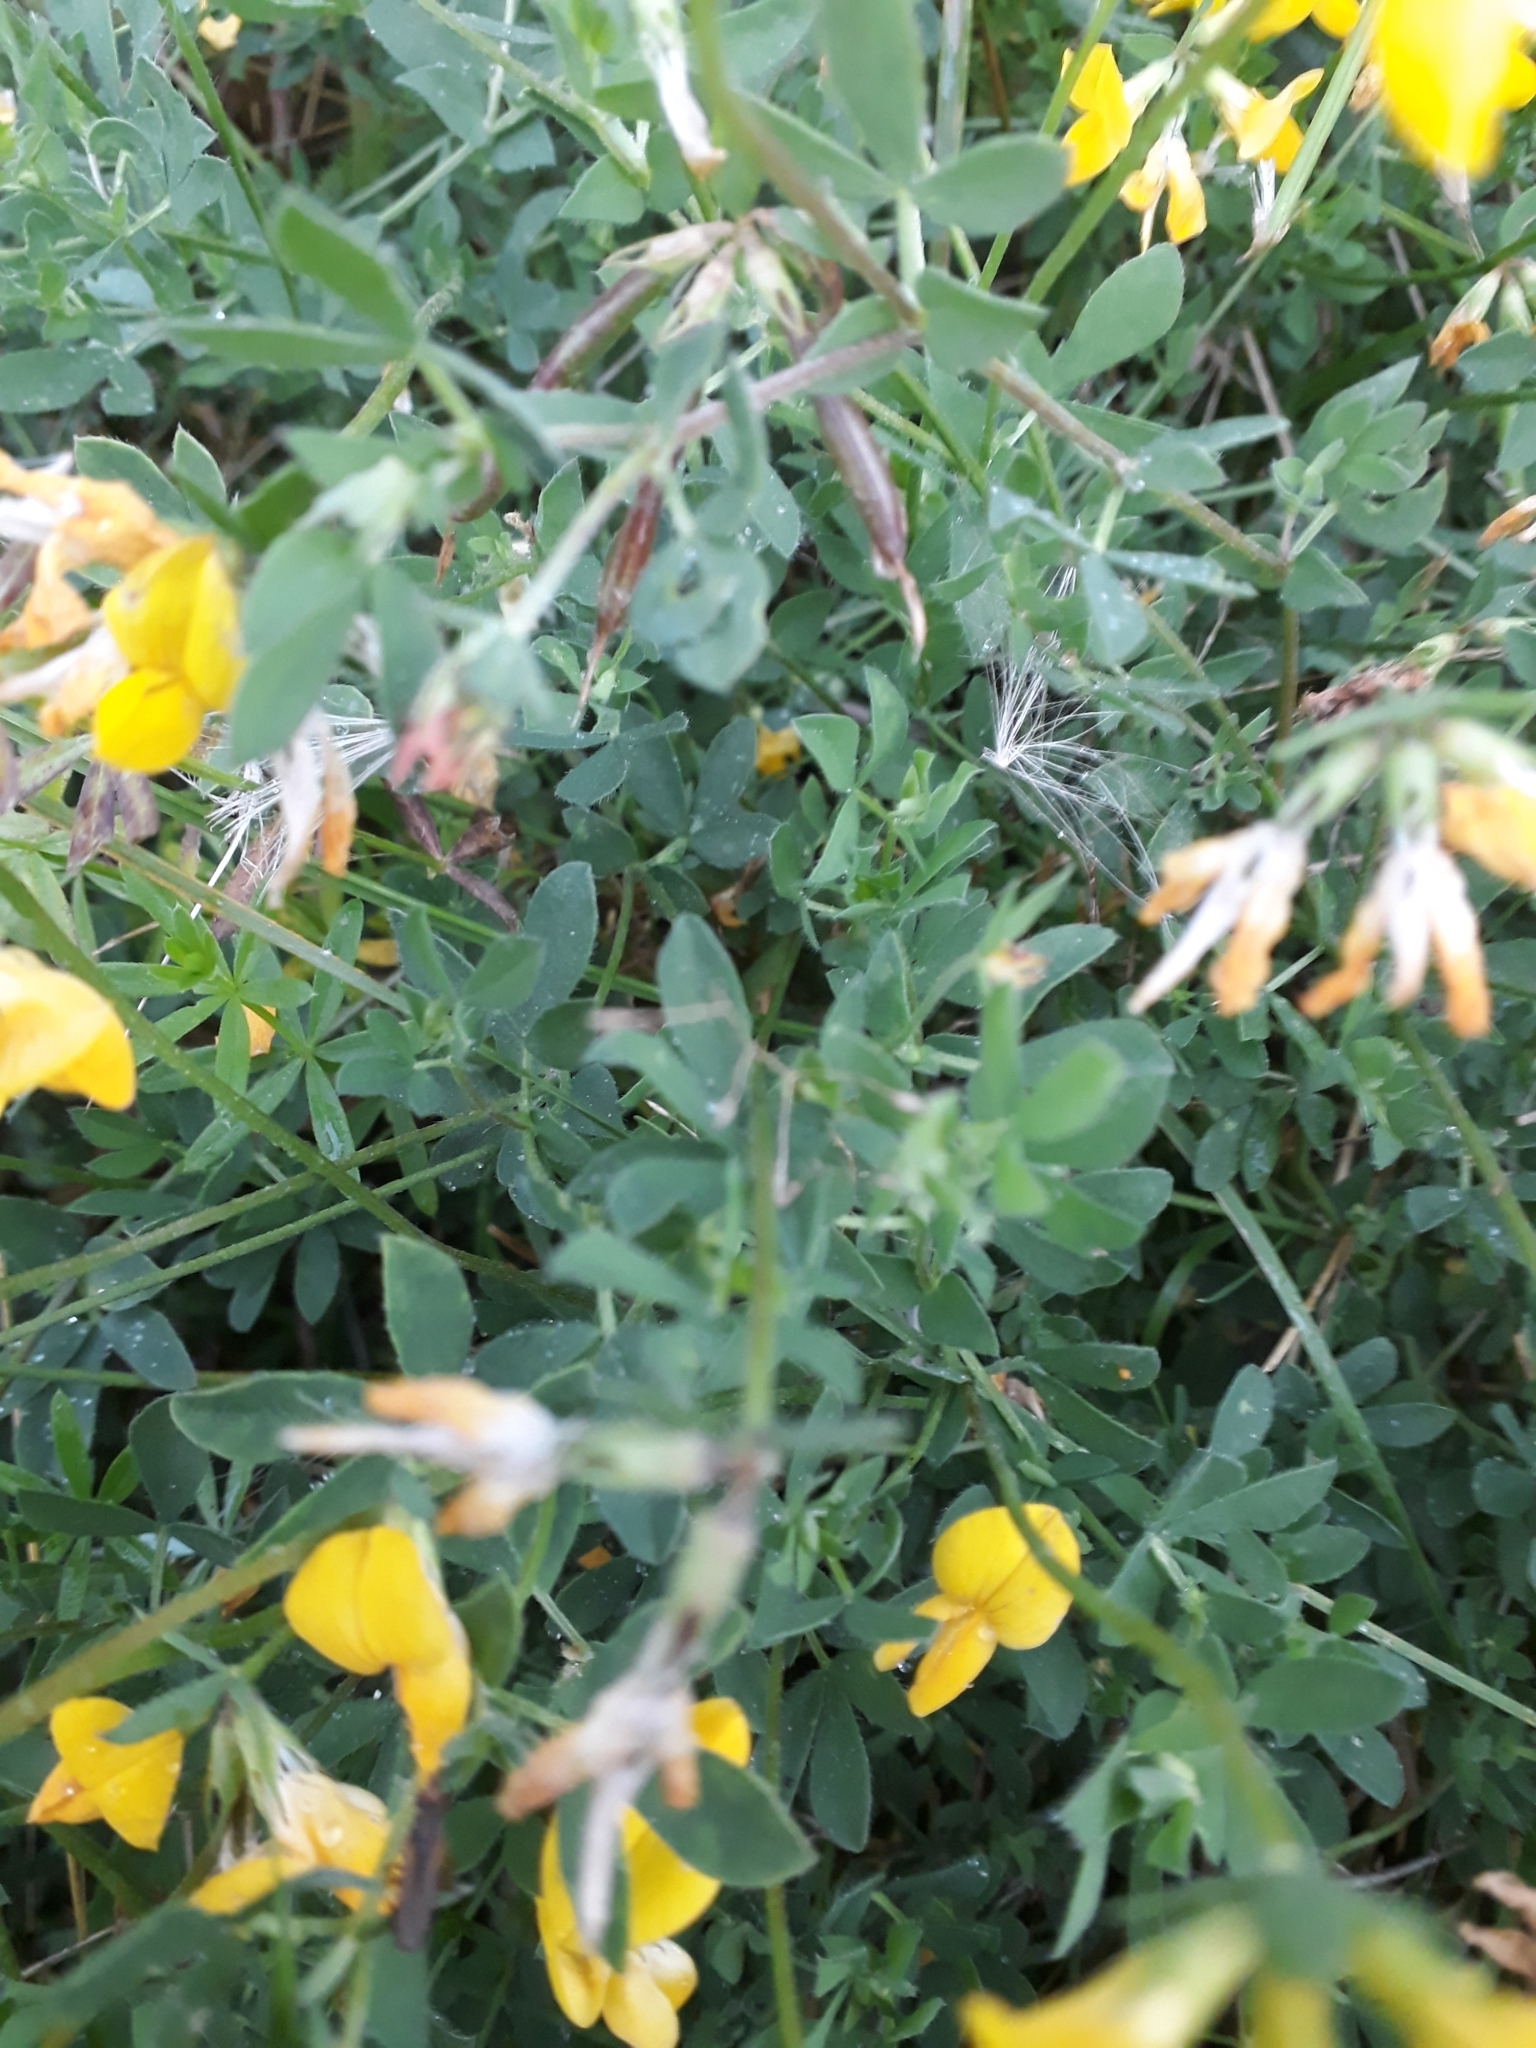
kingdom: Plantae
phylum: Tracheophyta
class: Magnoliopsida
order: Fabales
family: Fabaceae
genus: Lotus
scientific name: Lotus corniculatus
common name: Common bird's-foot-trefoil
